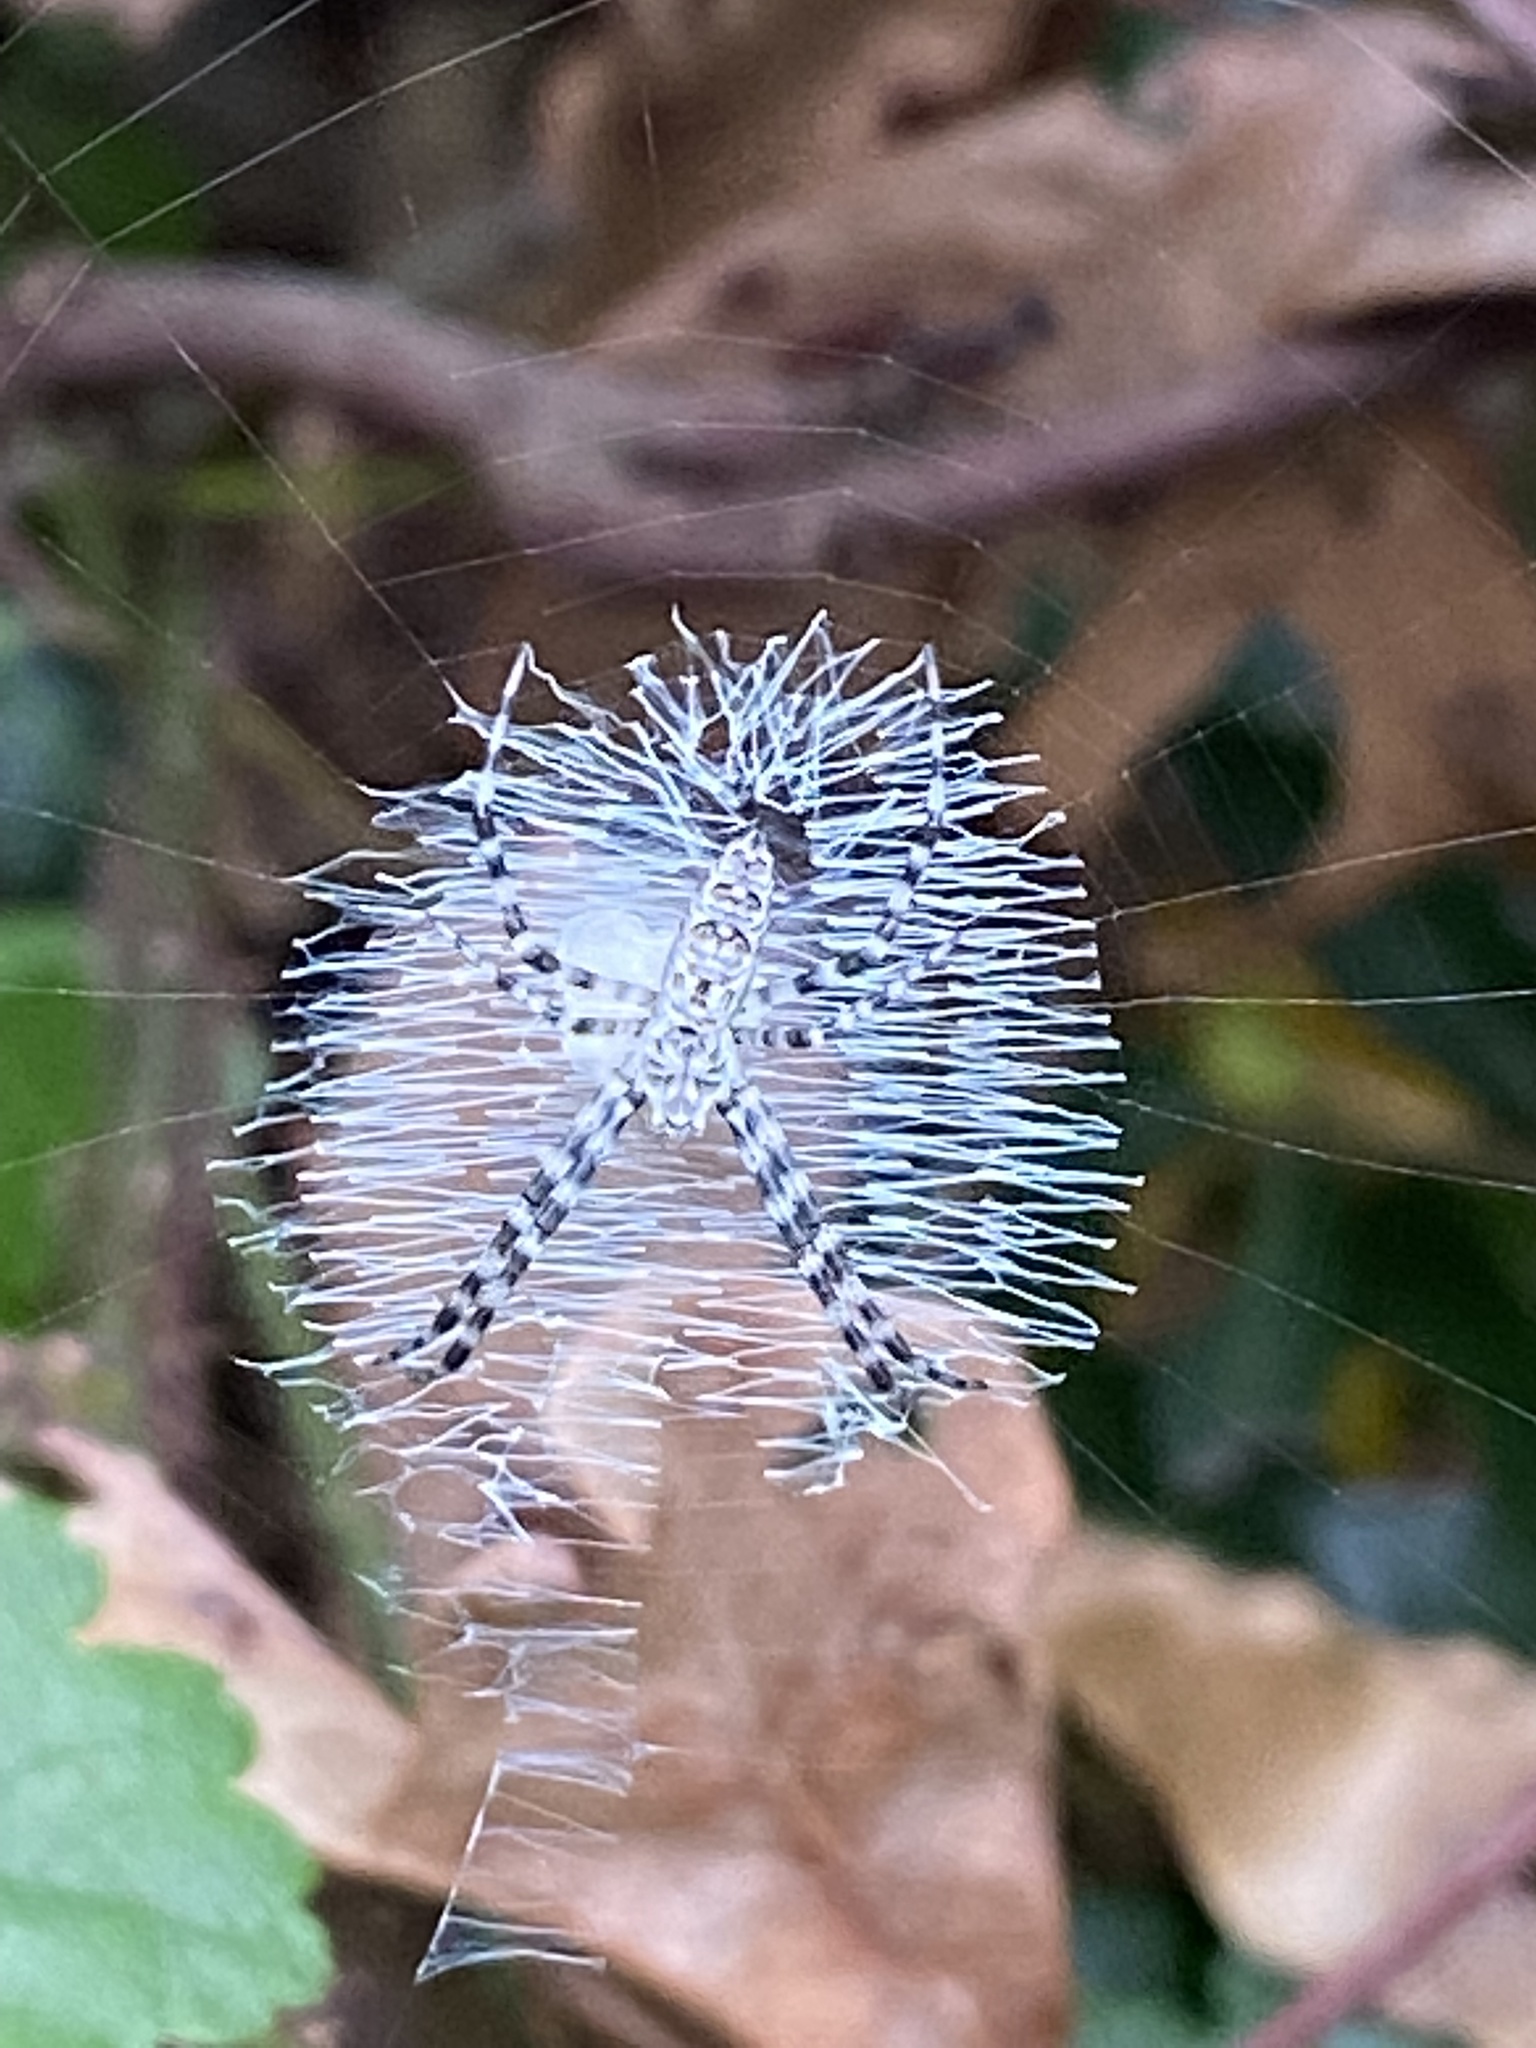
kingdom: Animalia
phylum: Arthropoda
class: Arachnida
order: Araneae
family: Araneidae
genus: Argiope
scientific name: Argiope aurantia
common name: Orb weavers
